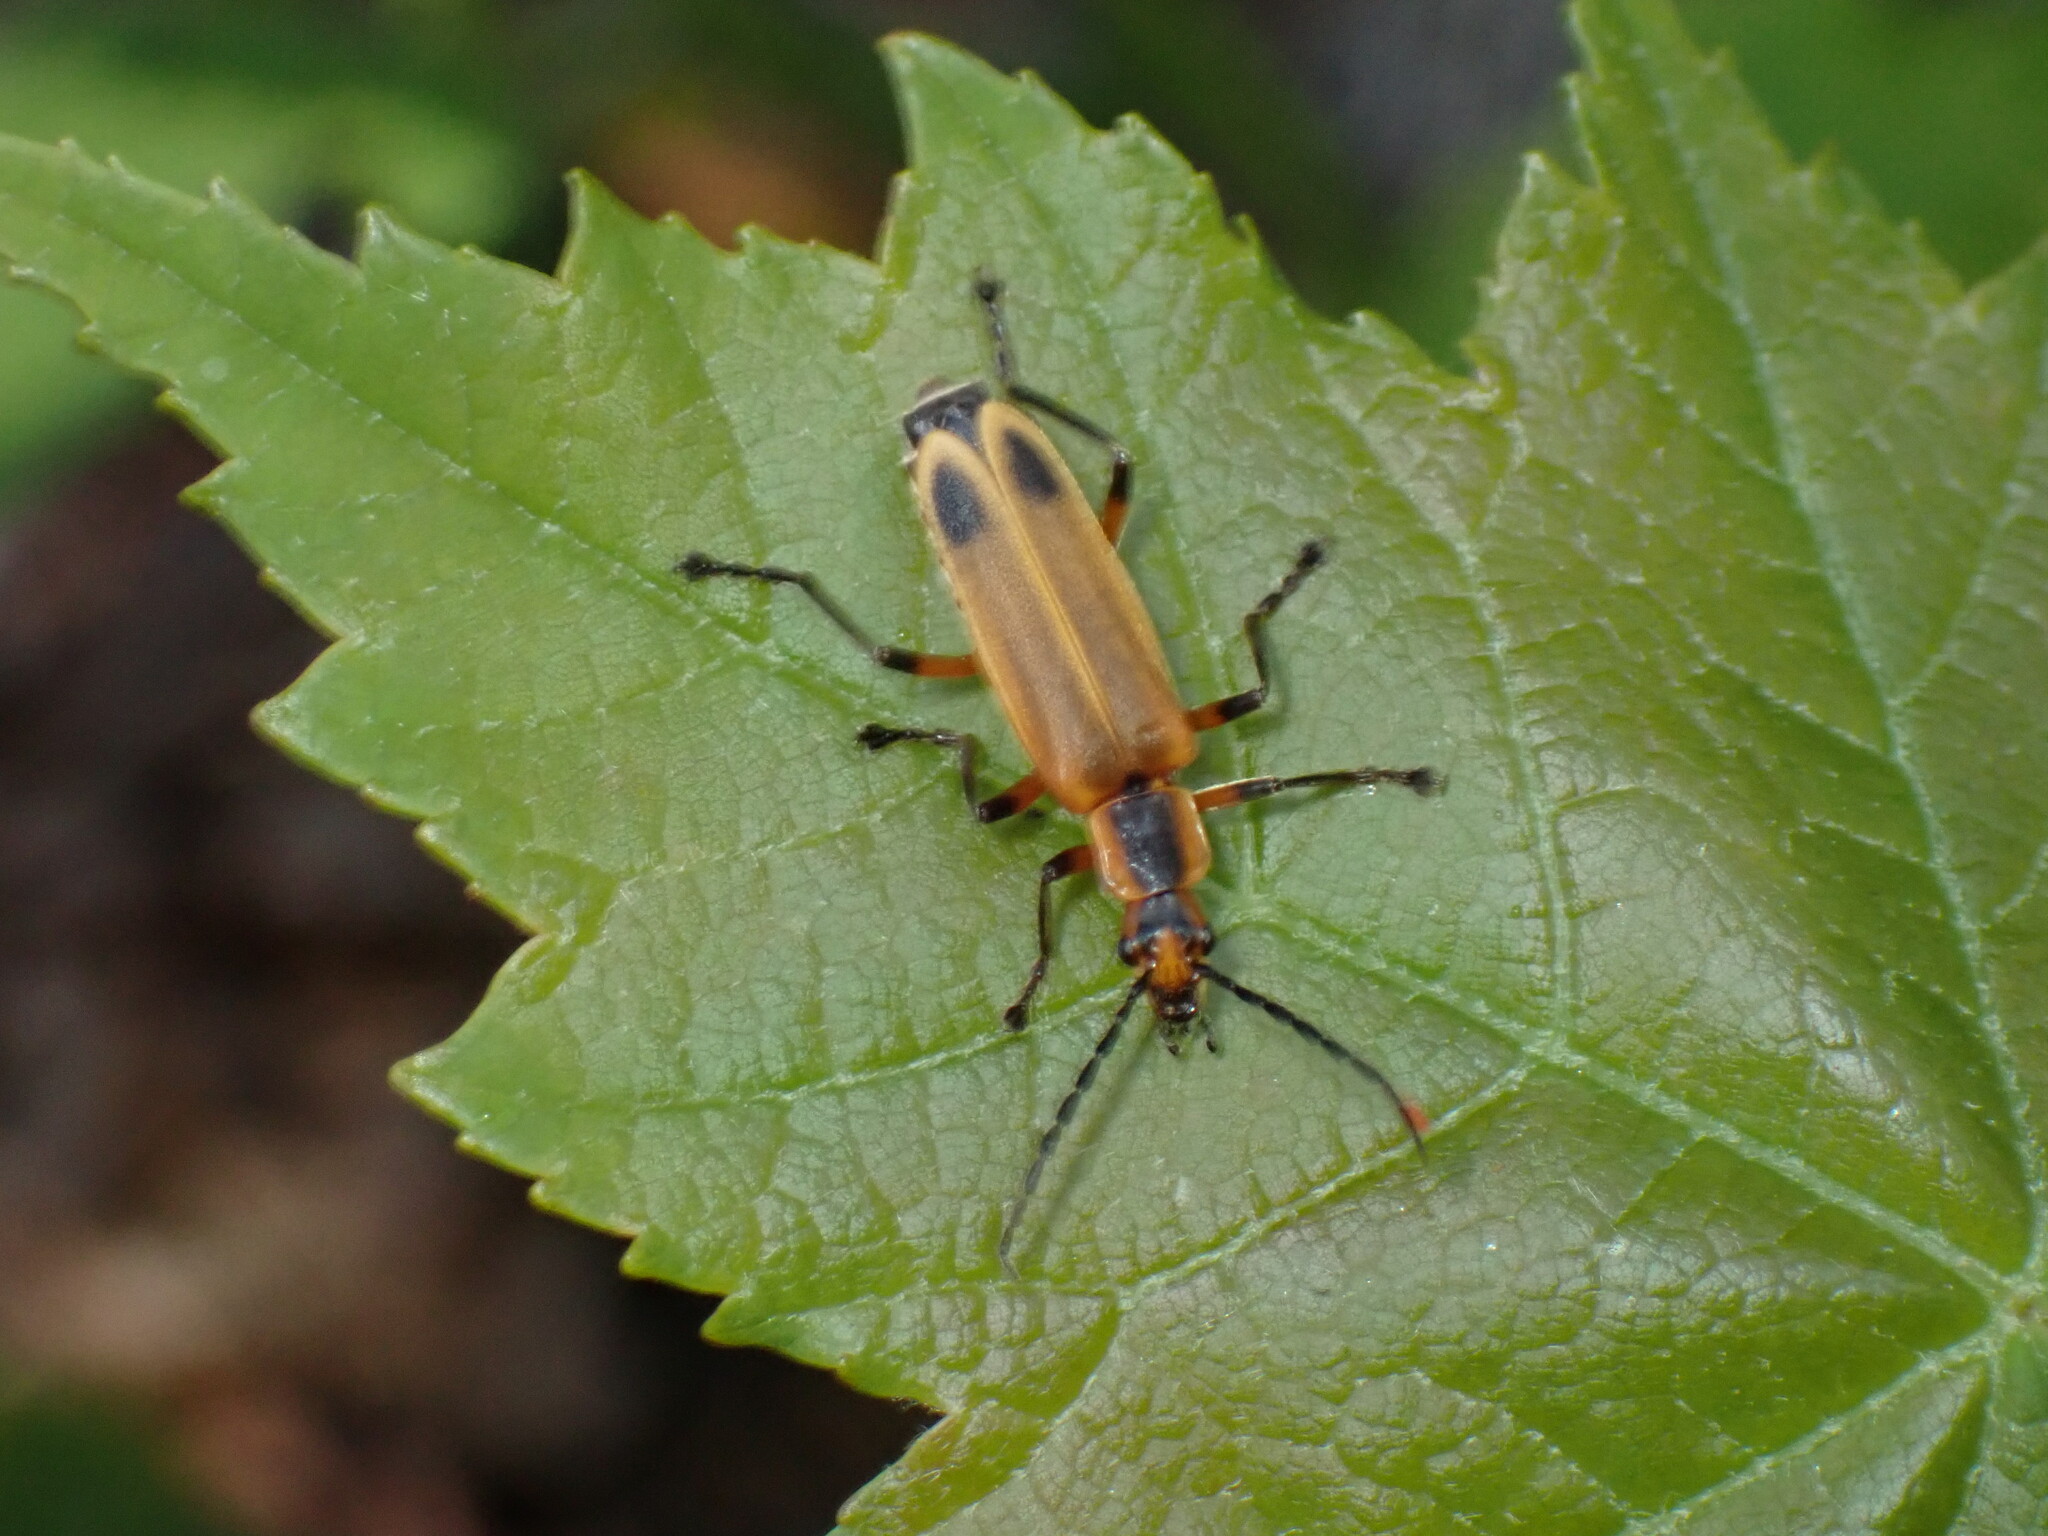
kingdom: Animalia
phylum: Arthropoda
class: Insecta
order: Coleoptera
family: Cantharidae
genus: Chauliognathus
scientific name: Chauliognathus marginatus
